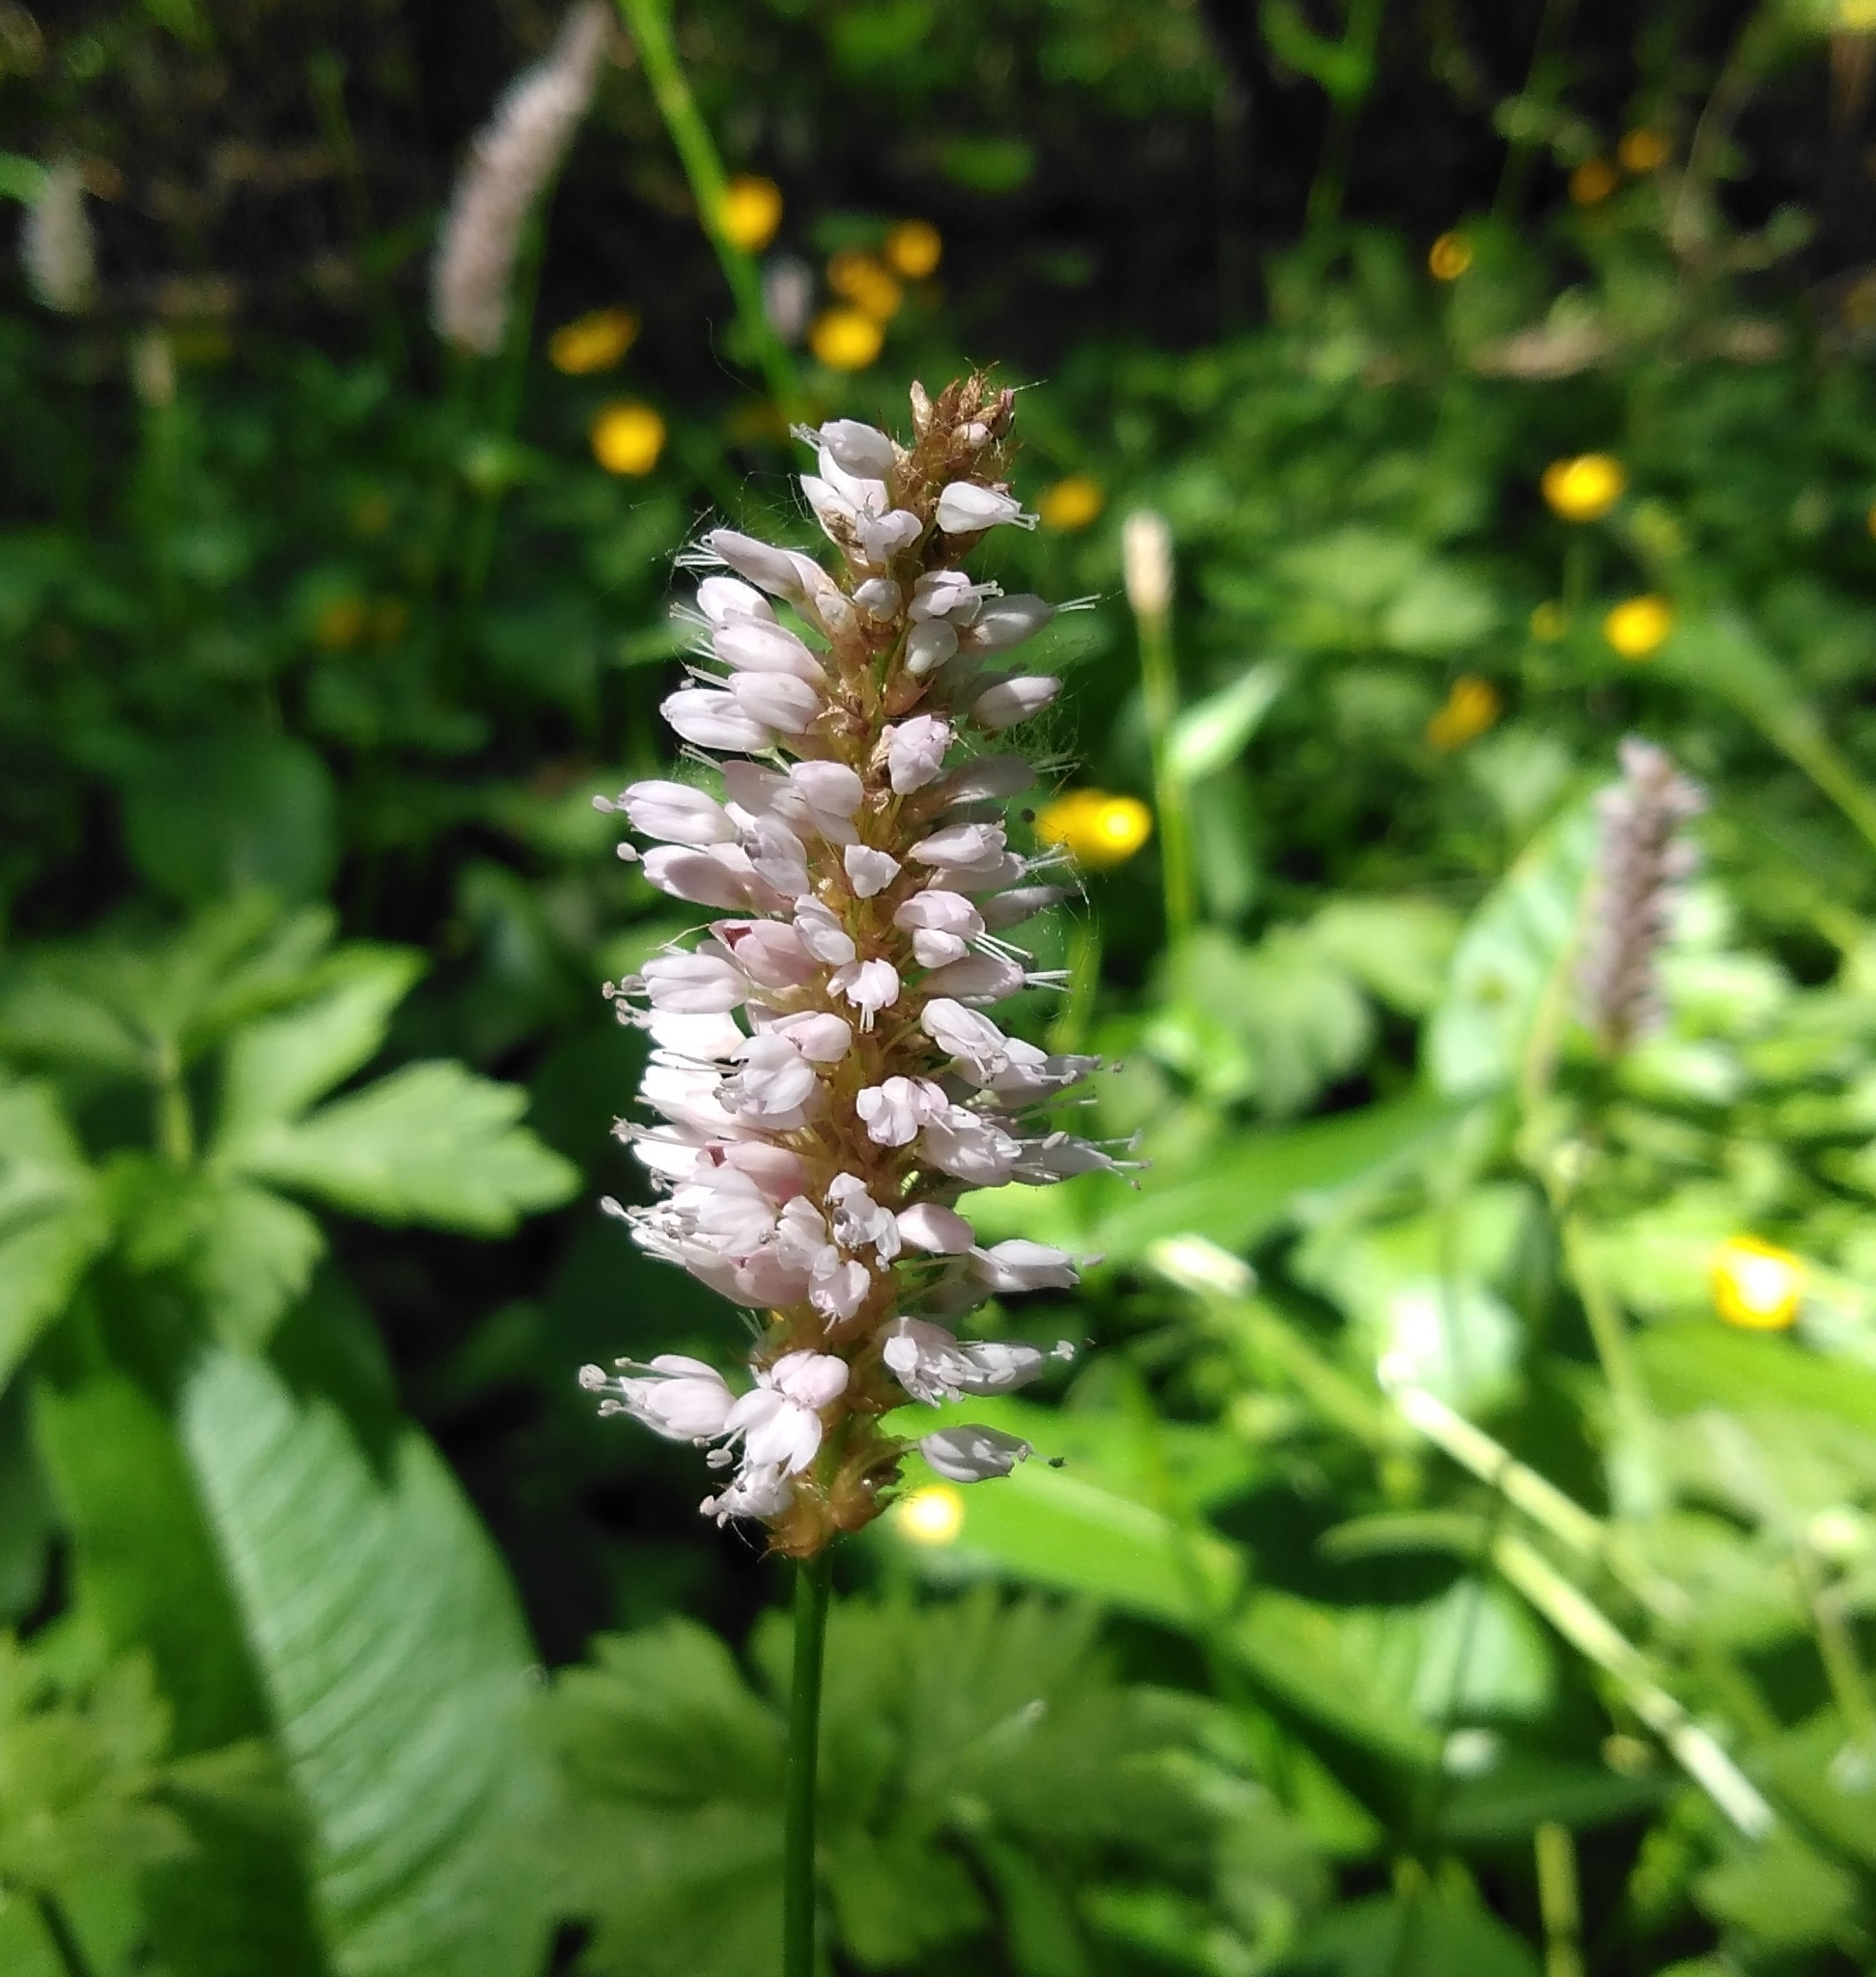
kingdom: Plantae
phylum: Tracheophyta
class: Magnoliopsida
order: Caryophyllales
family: Polygonaceae
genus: Bistorta
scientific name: Bistorta officinalis
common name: Common bistort
